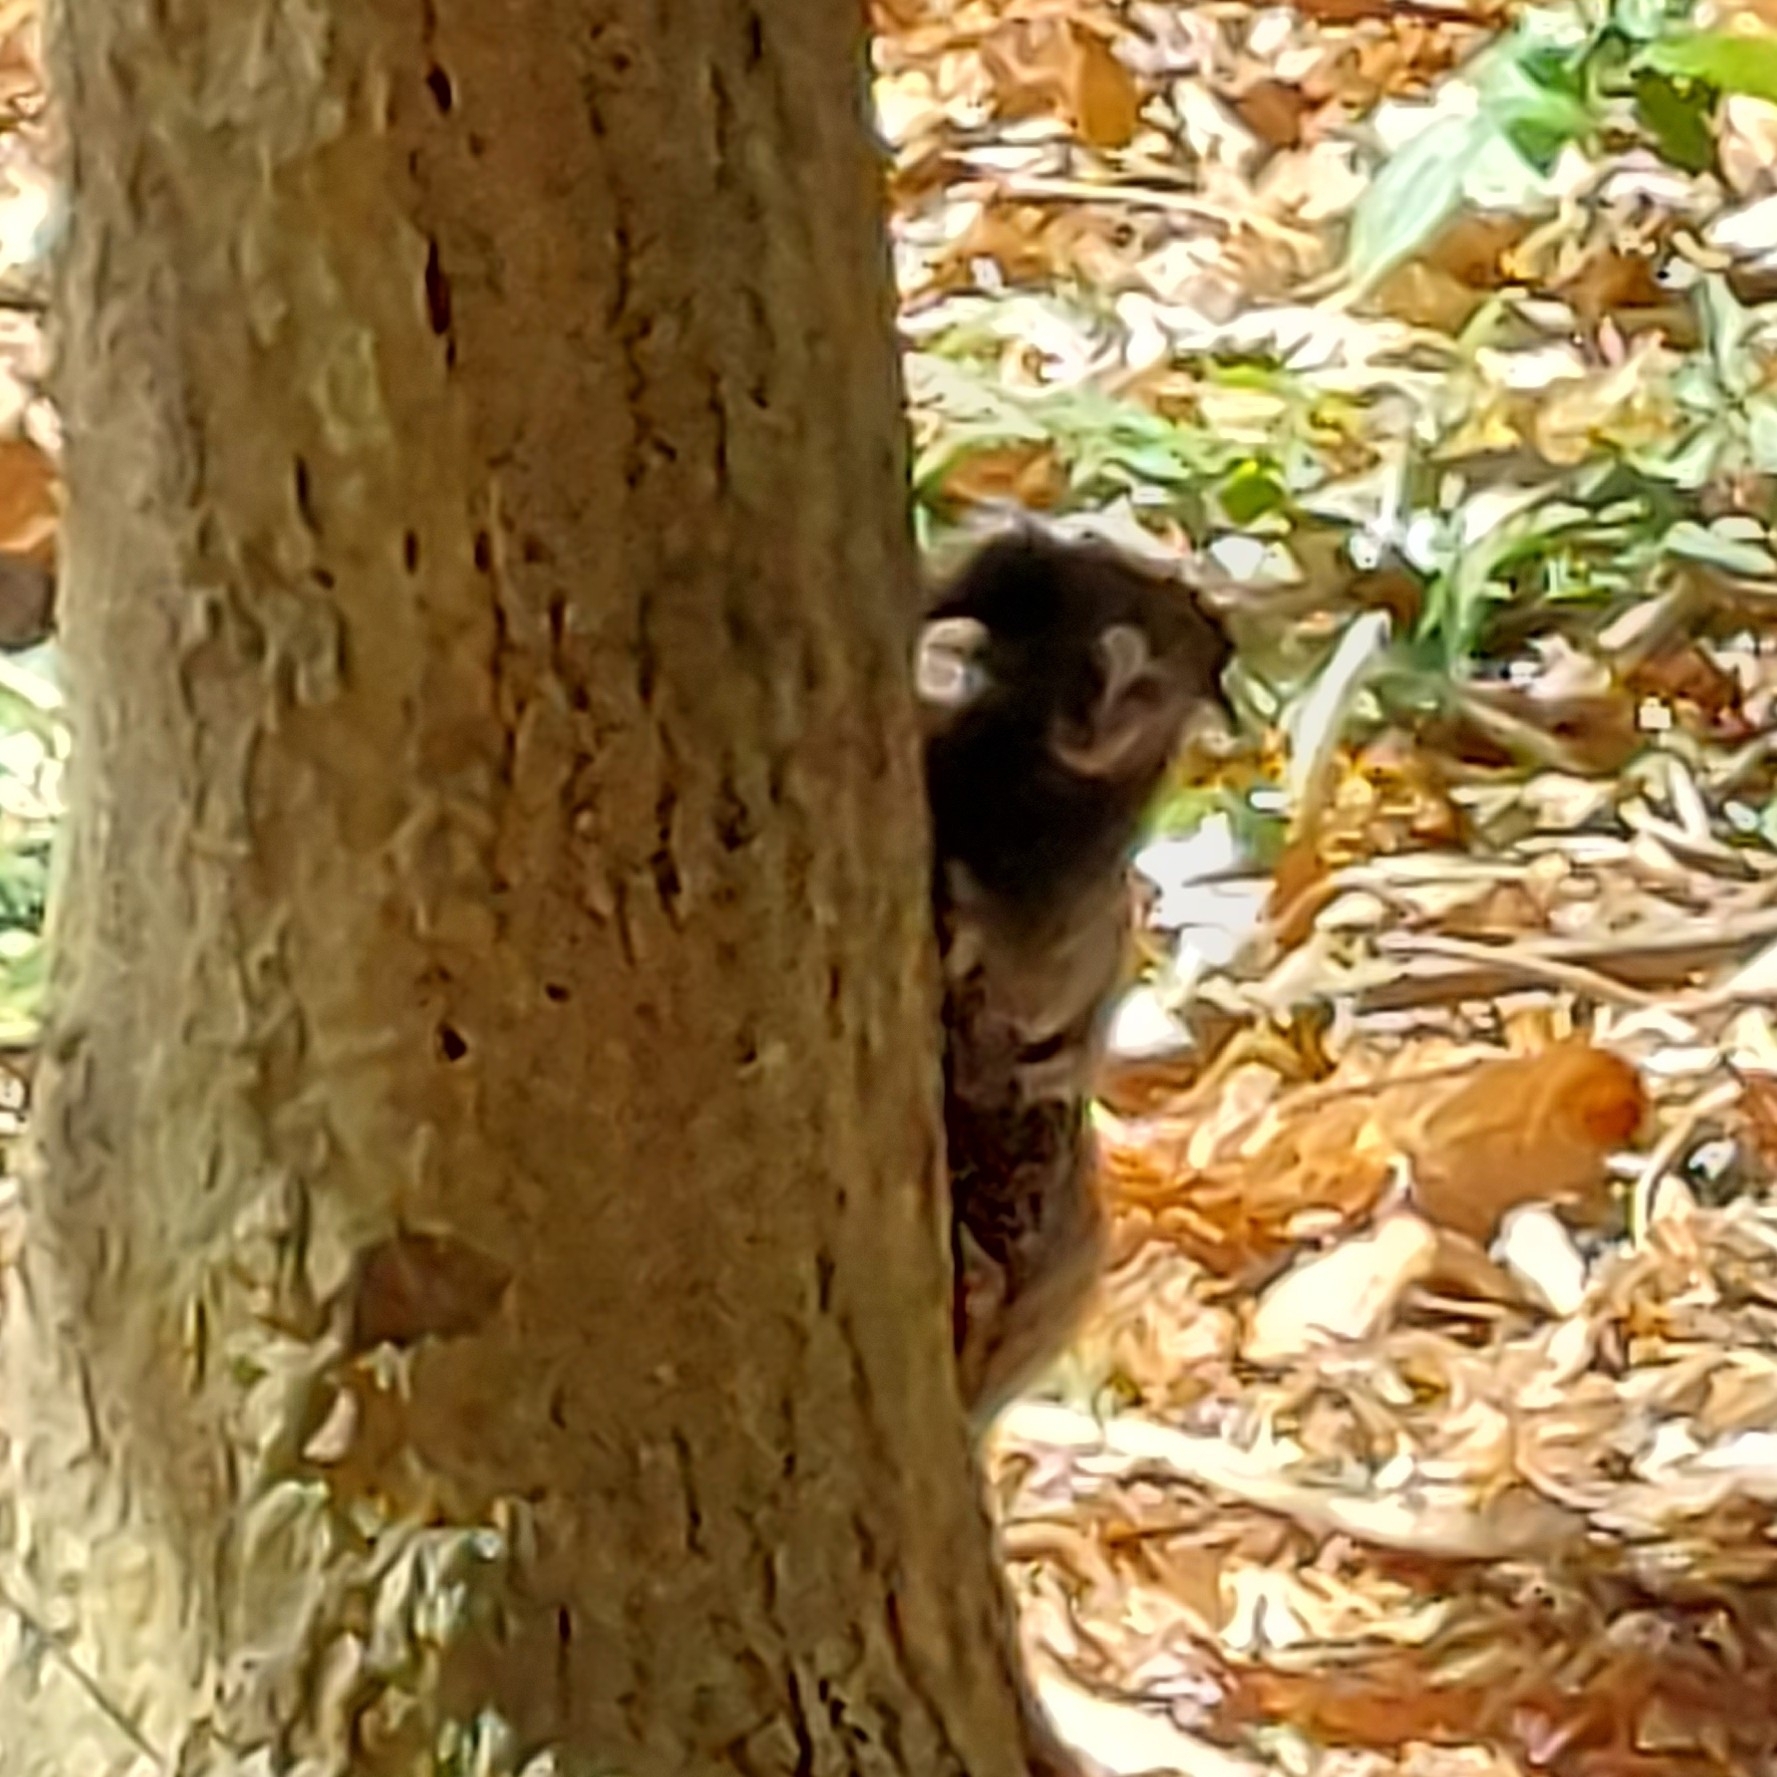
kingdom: Animalia
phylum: Chordata
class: Mammalia
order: Primates
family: Callitrichidae
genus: Callithrix
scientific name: Callithrix penicillata
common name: Black-tufted marmoset
